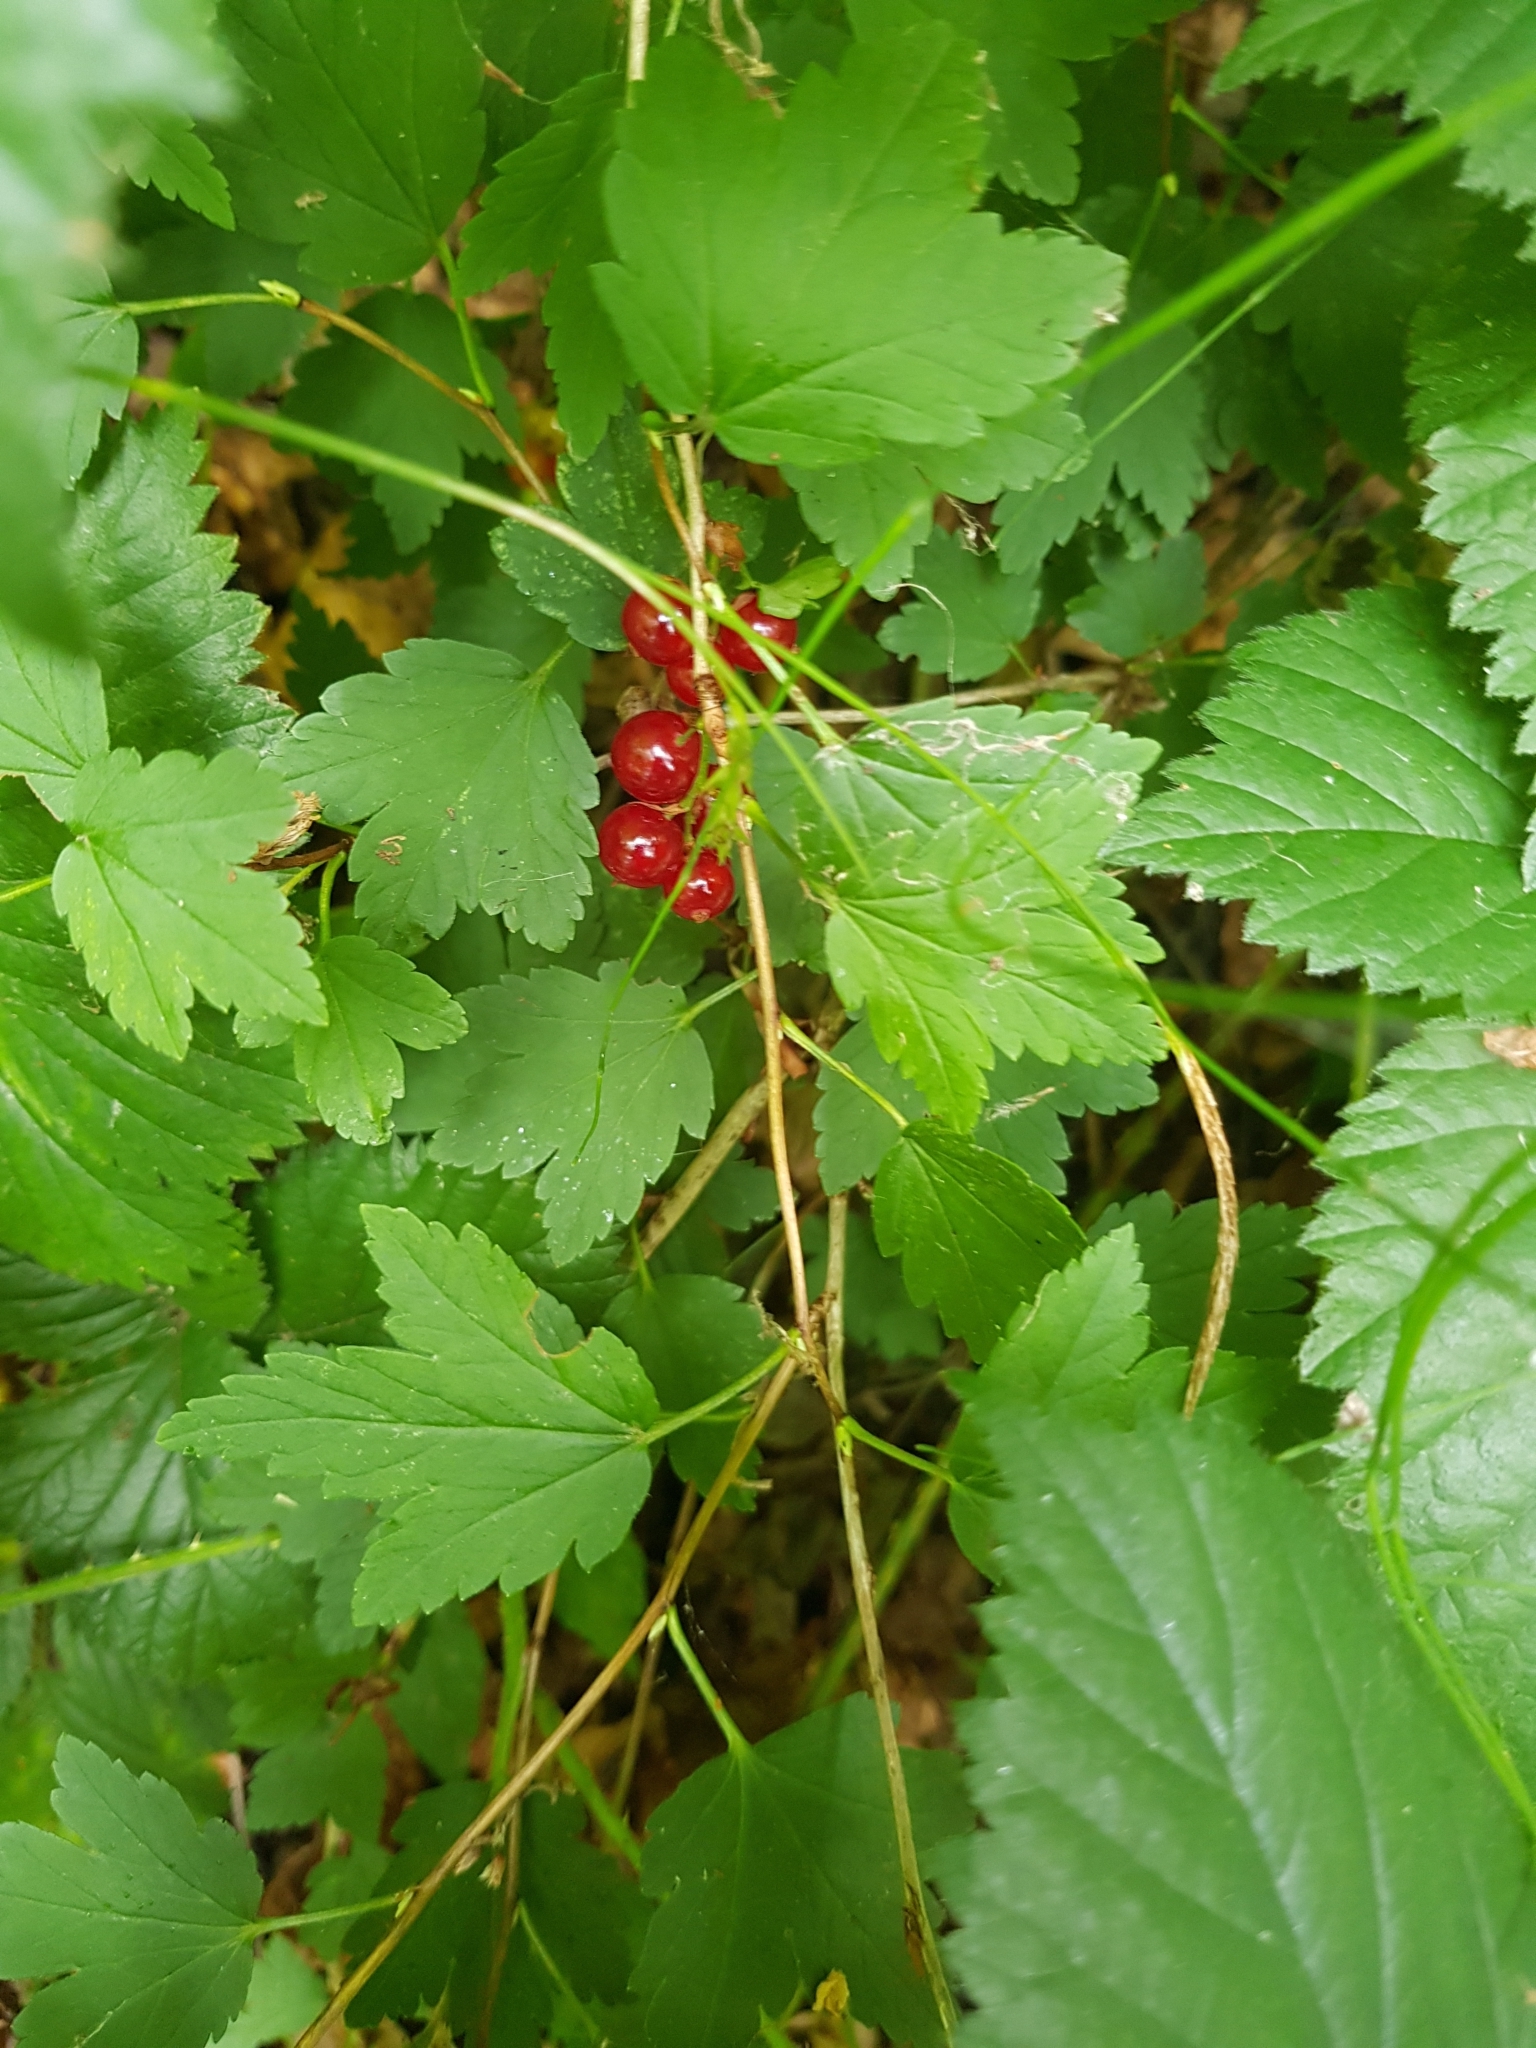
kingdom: Plantae
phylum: Tracheophyta
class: Magnoliopsida
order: Saxifragales
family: Grossulariaceae
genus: Ribes
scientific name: Ribes alpinum
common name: Alpine currant
